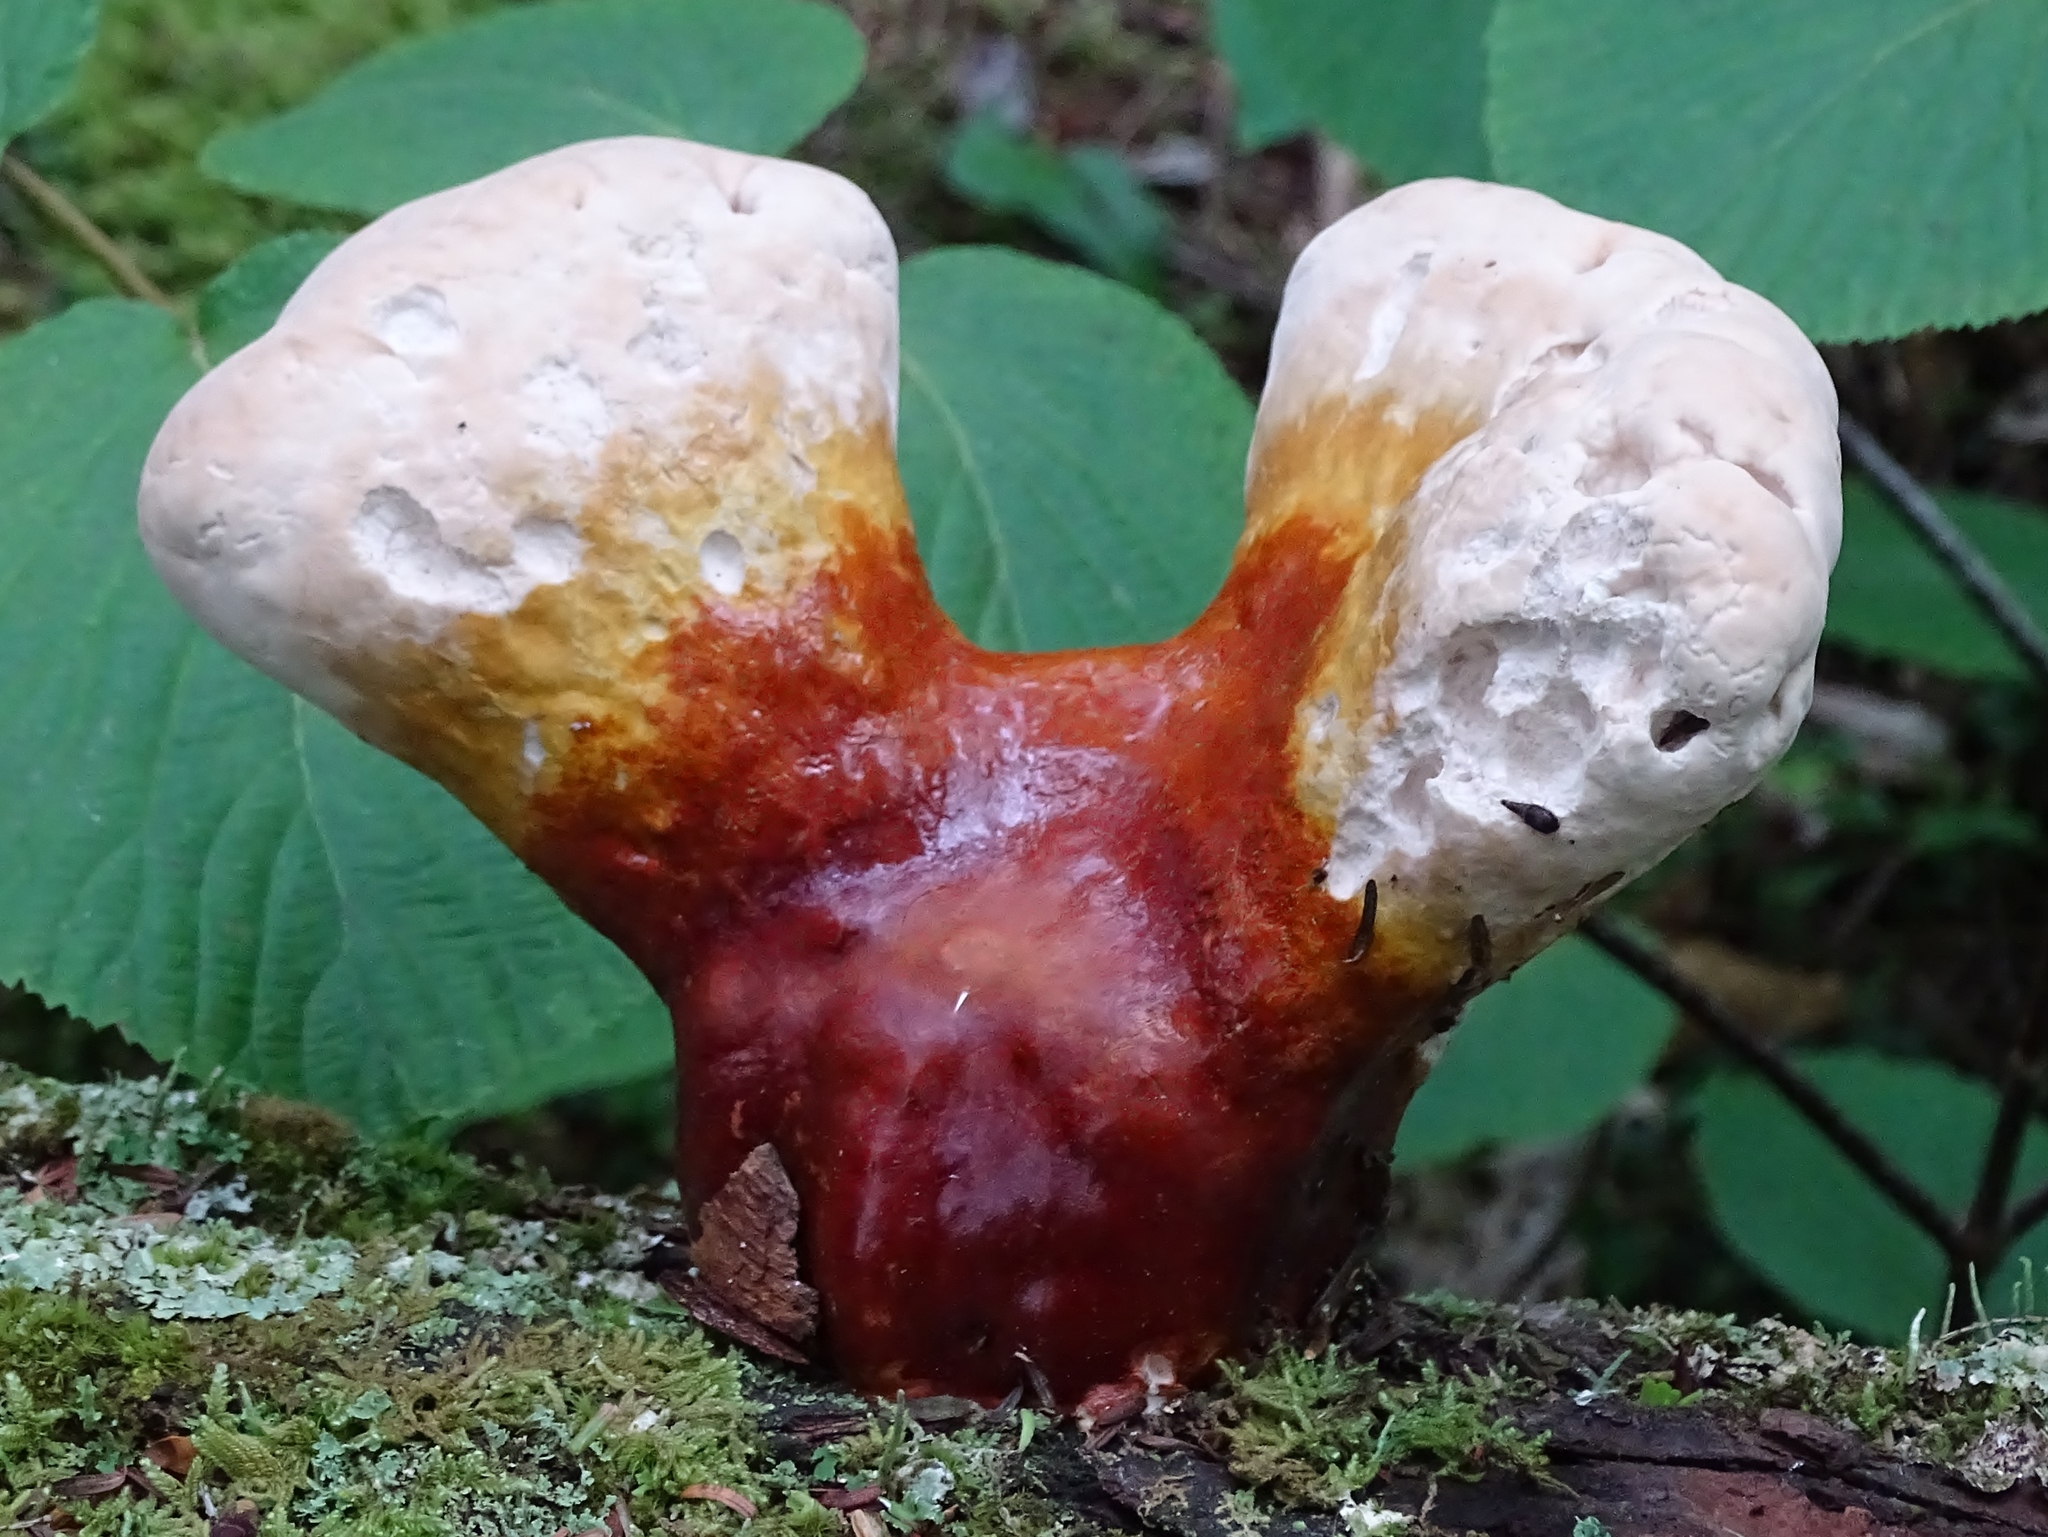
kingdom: Fungi
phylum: Basidiomycota
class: Agaricomycetes
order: Polyporales
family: Polyporaceae
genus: Ganoderma
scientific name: Ganoderma tsugae
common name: Hemlock varnish shelf
